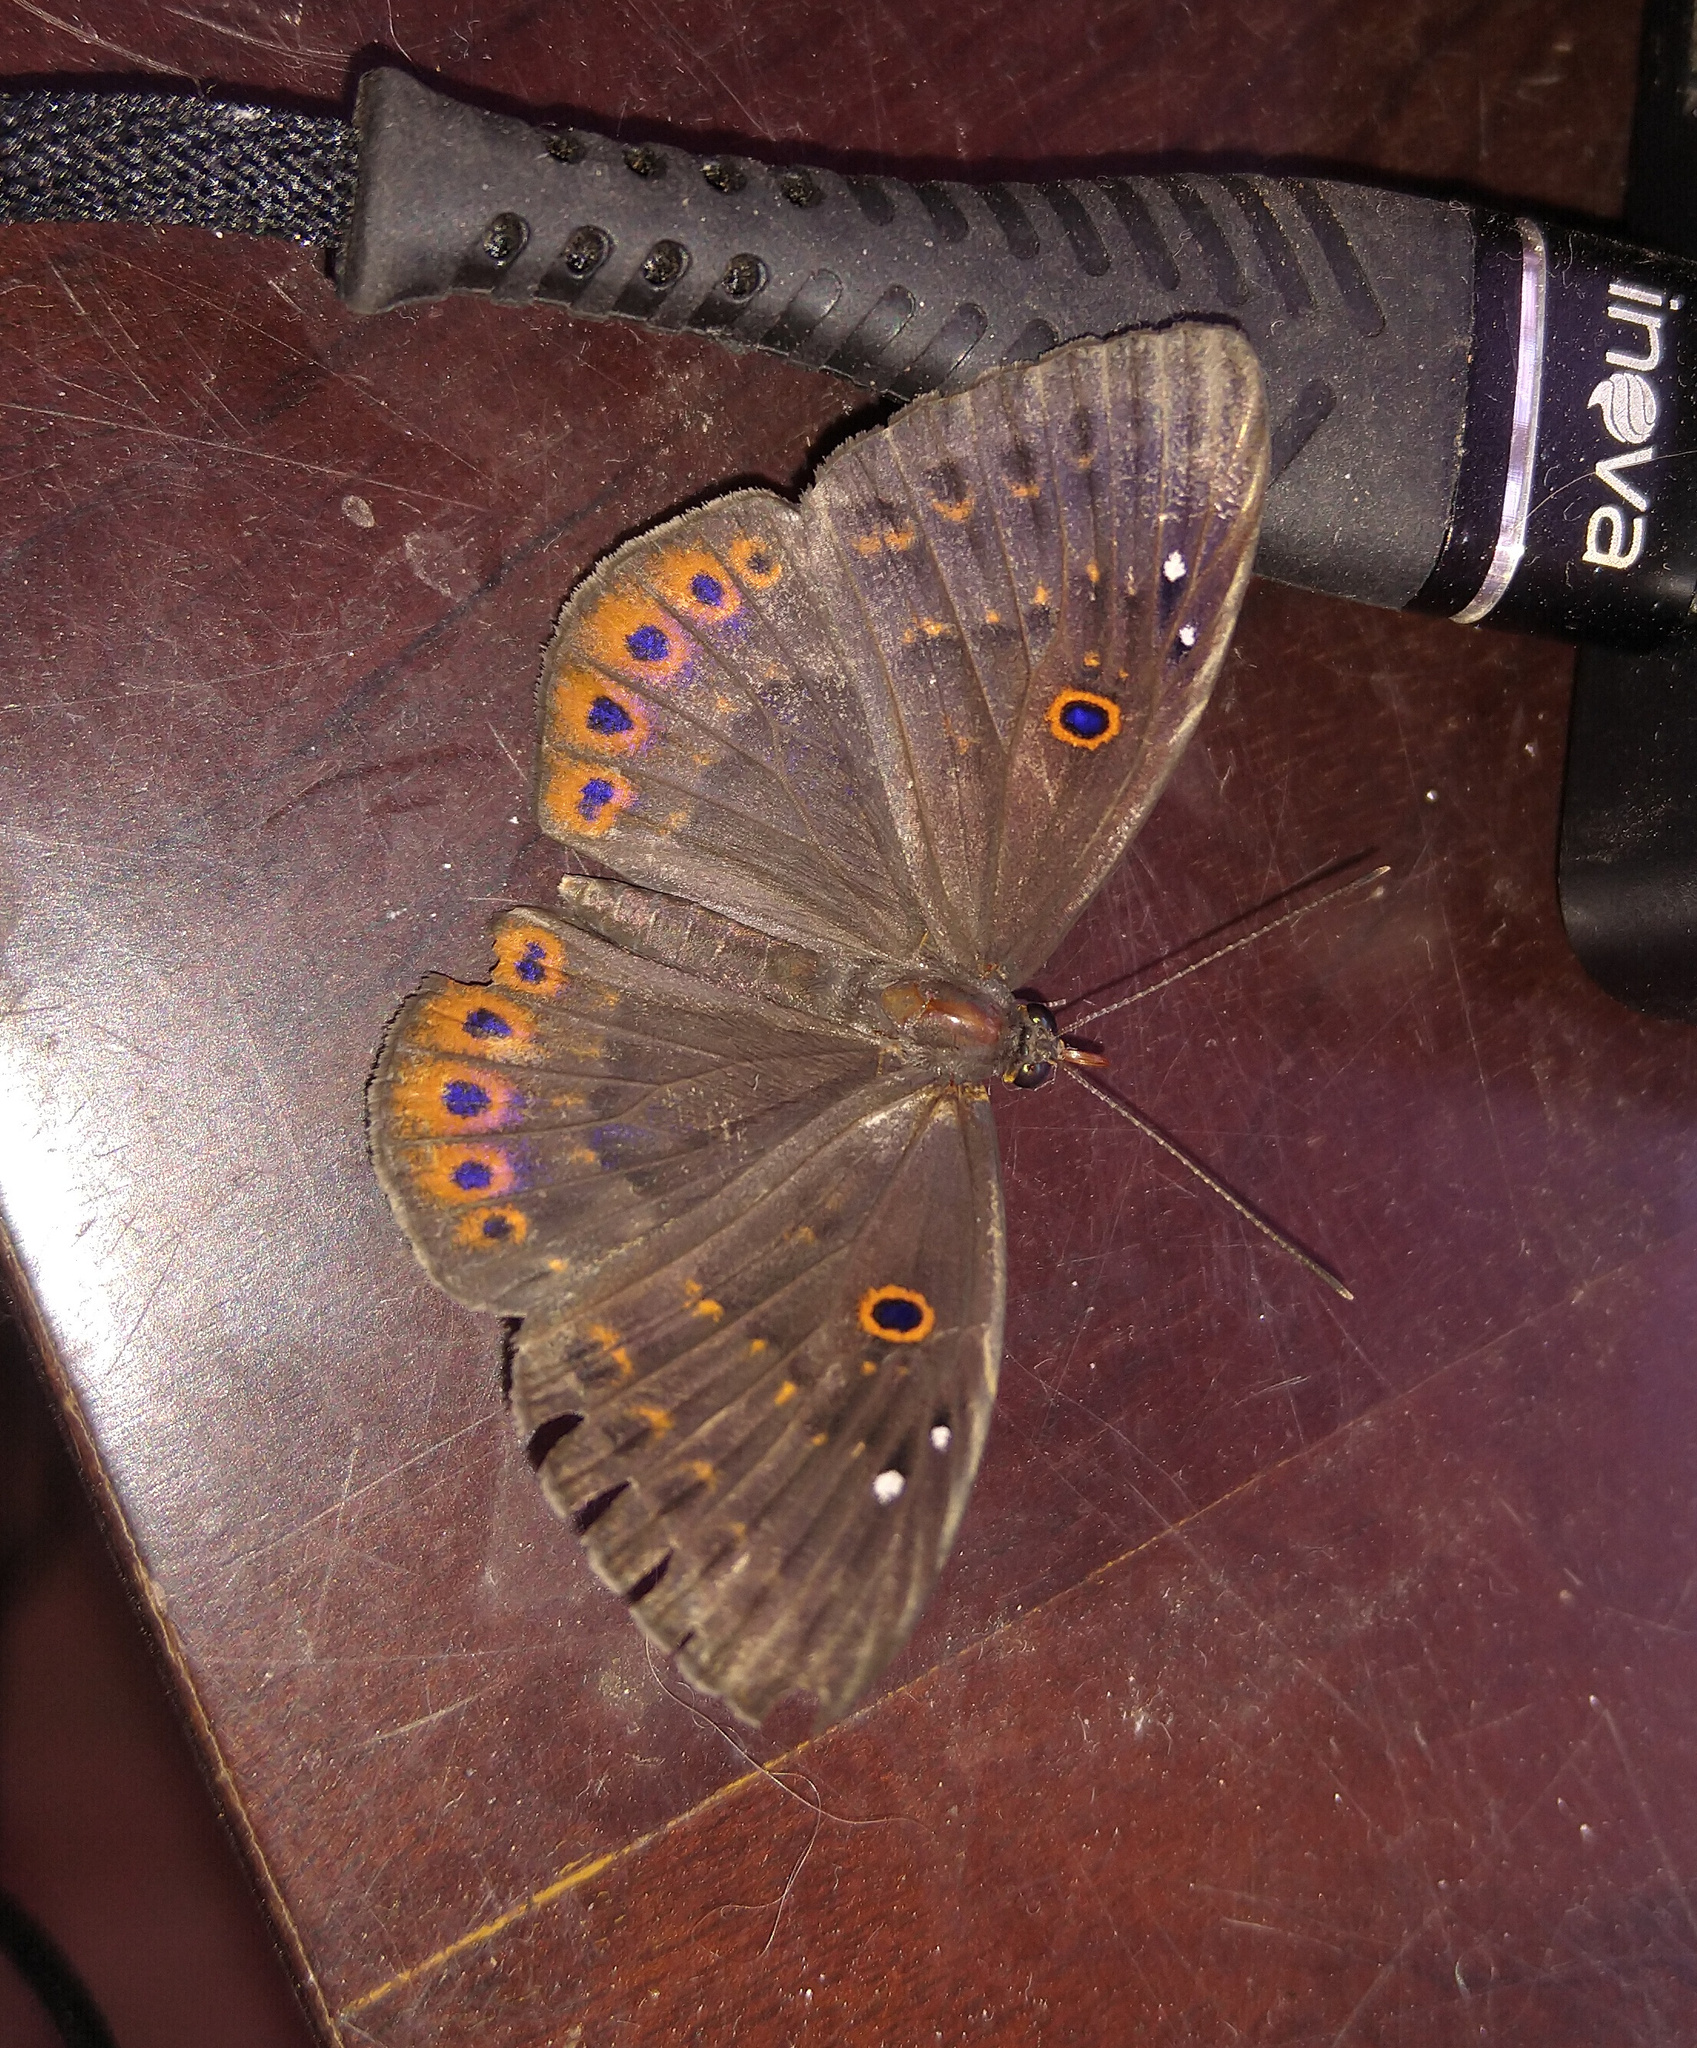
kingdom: Animalia
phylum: Cnidaria
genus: Eurybia
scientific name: Eurybia molochina
